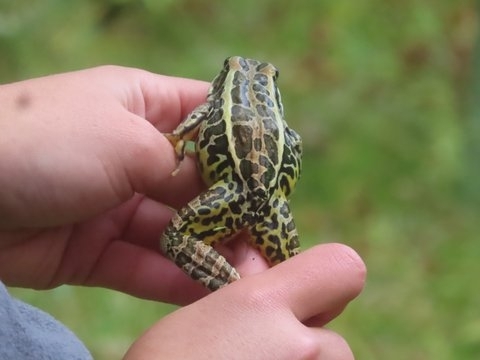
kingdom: Animalia
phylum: Chordata
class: Amphibia
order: Anura
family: Ranidae
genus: Lithobates
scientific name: Lithobates palustris
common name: Pickerel frog
